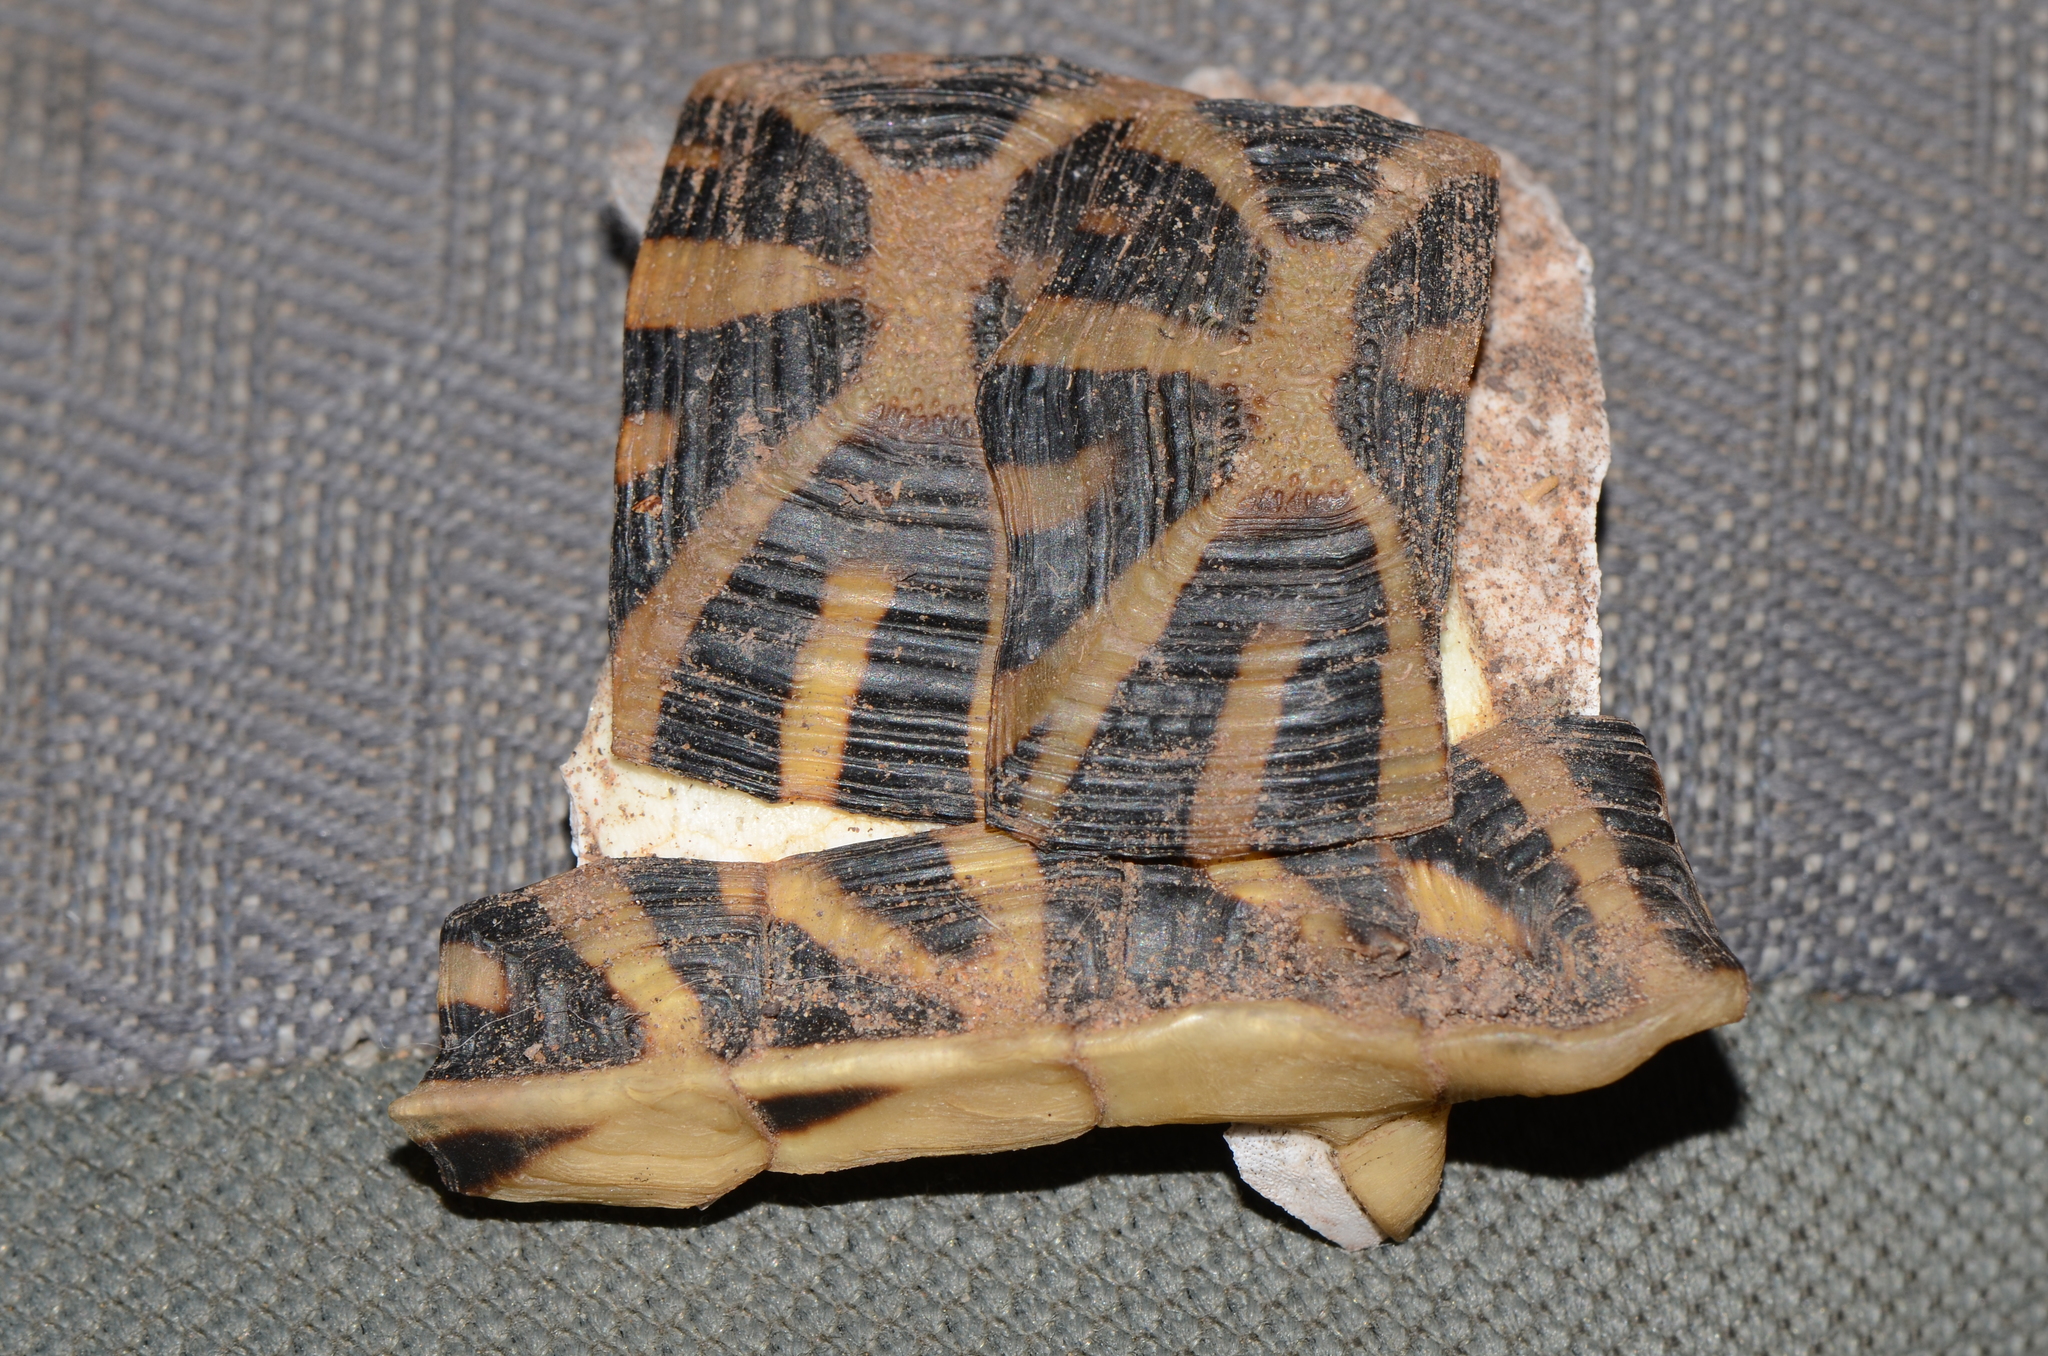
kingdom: Animalia
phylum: Chordata
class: Testudines
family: Testudinidae
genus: Psammobates
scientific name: Psammobates tentorius
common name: Tent tortoise
